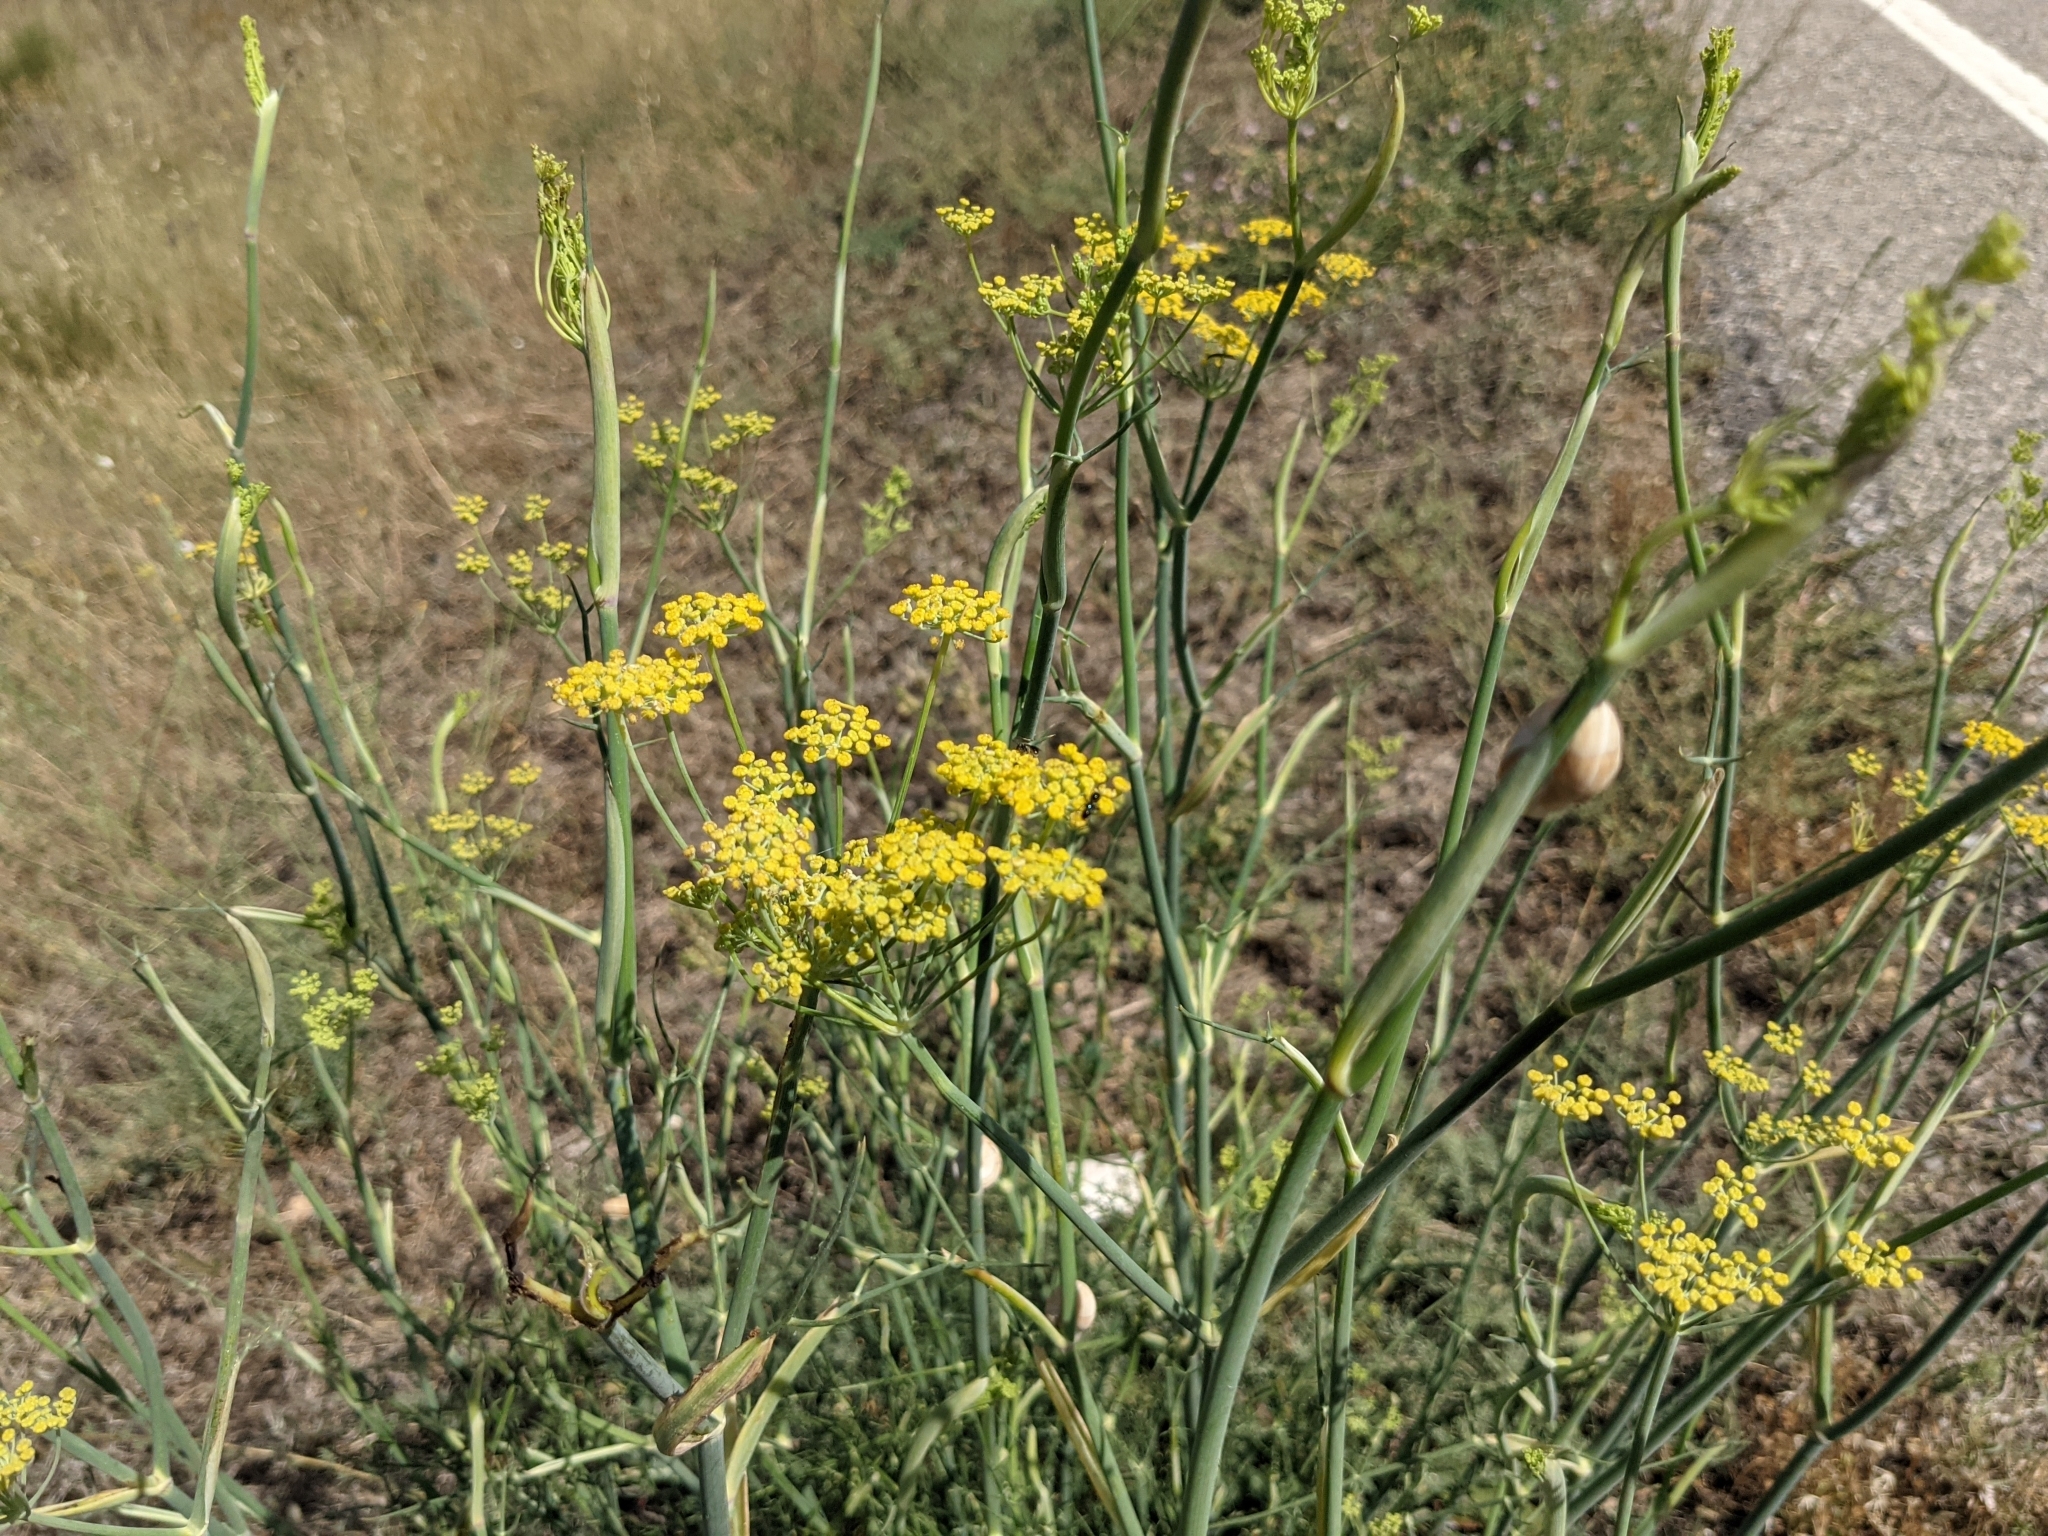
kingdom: Plantae
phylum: Tracheophyta
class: Magnoliopsida
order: Apiales
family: Apiaceae
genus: Foeniculum
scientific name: Foeniculum vulgare
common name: Fennel
